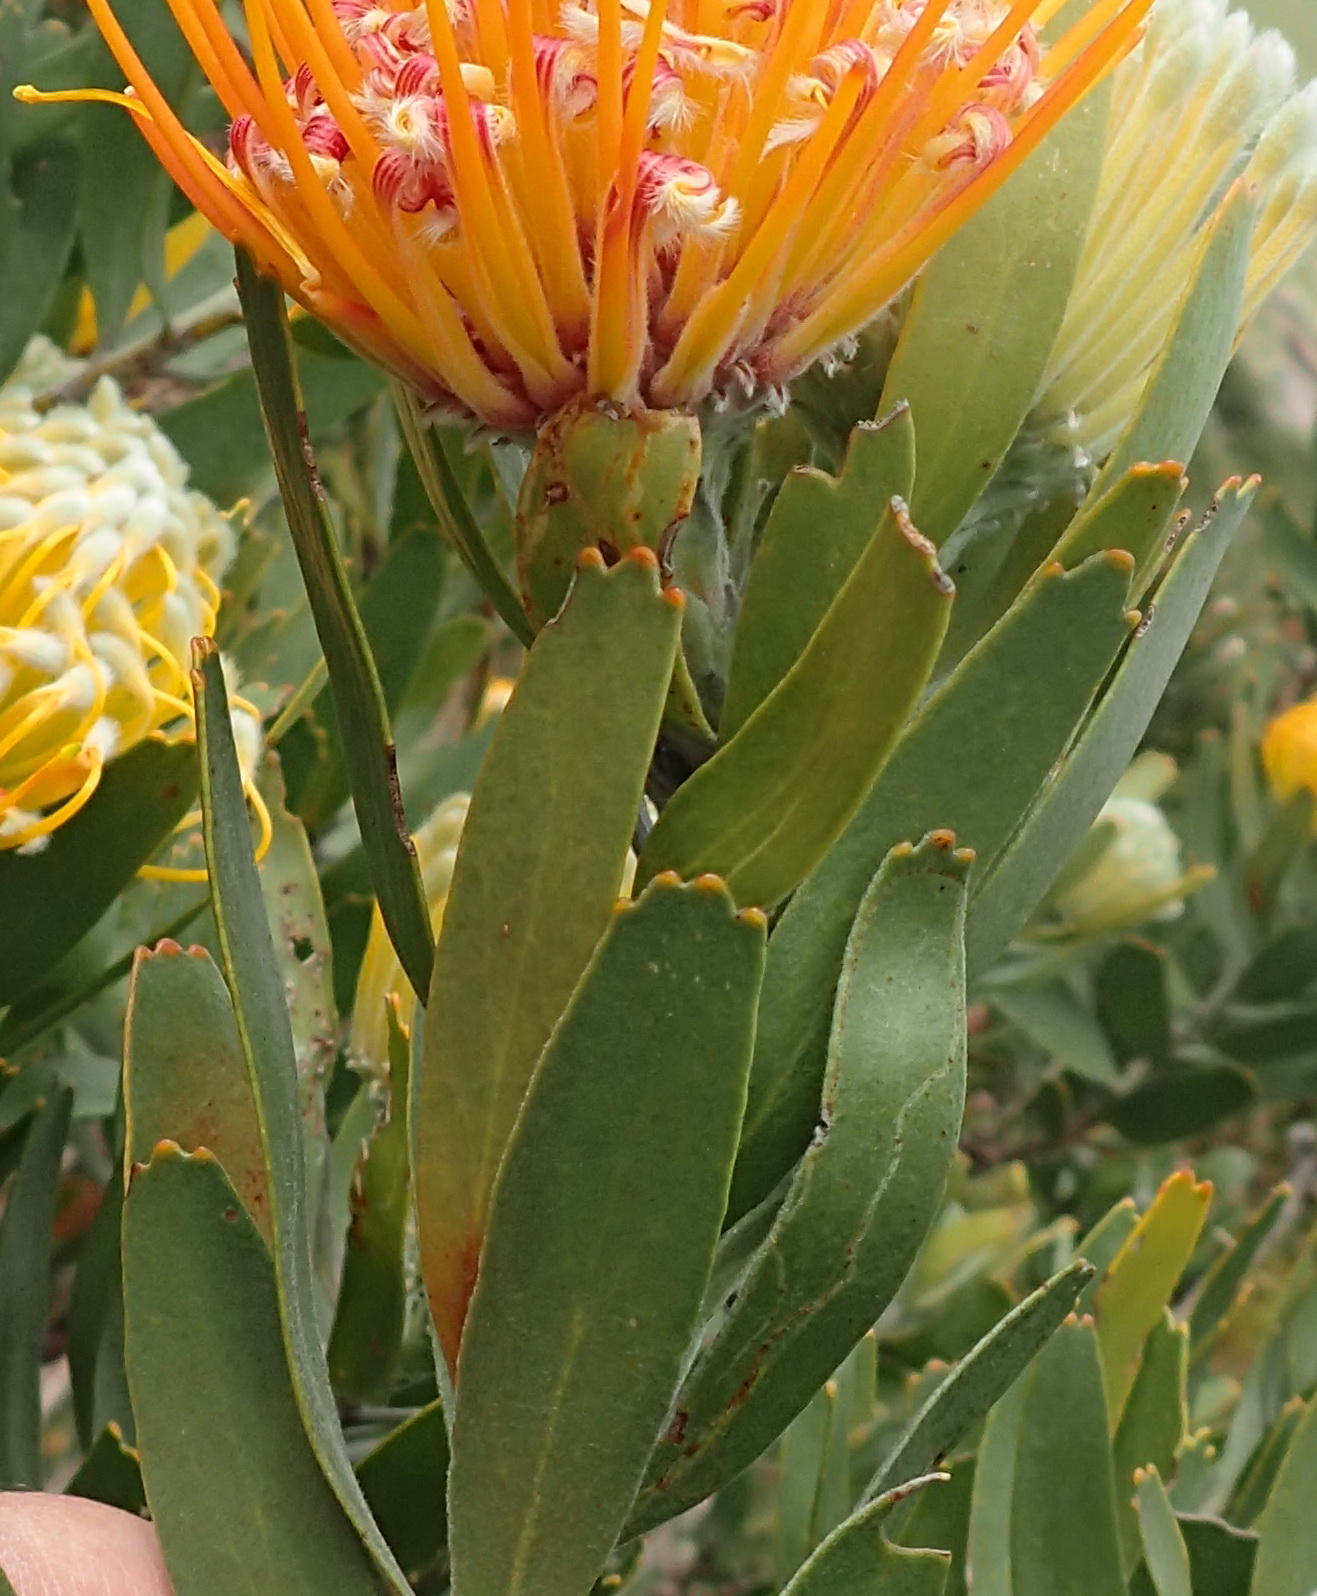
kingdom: Plantae
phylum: Tracheophyta
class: Magnoliopsida
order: Proteales
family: Proteaceae
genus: Leucospermum
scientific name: Leucospermum erubescens
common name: Oudtshoorn pincushion
